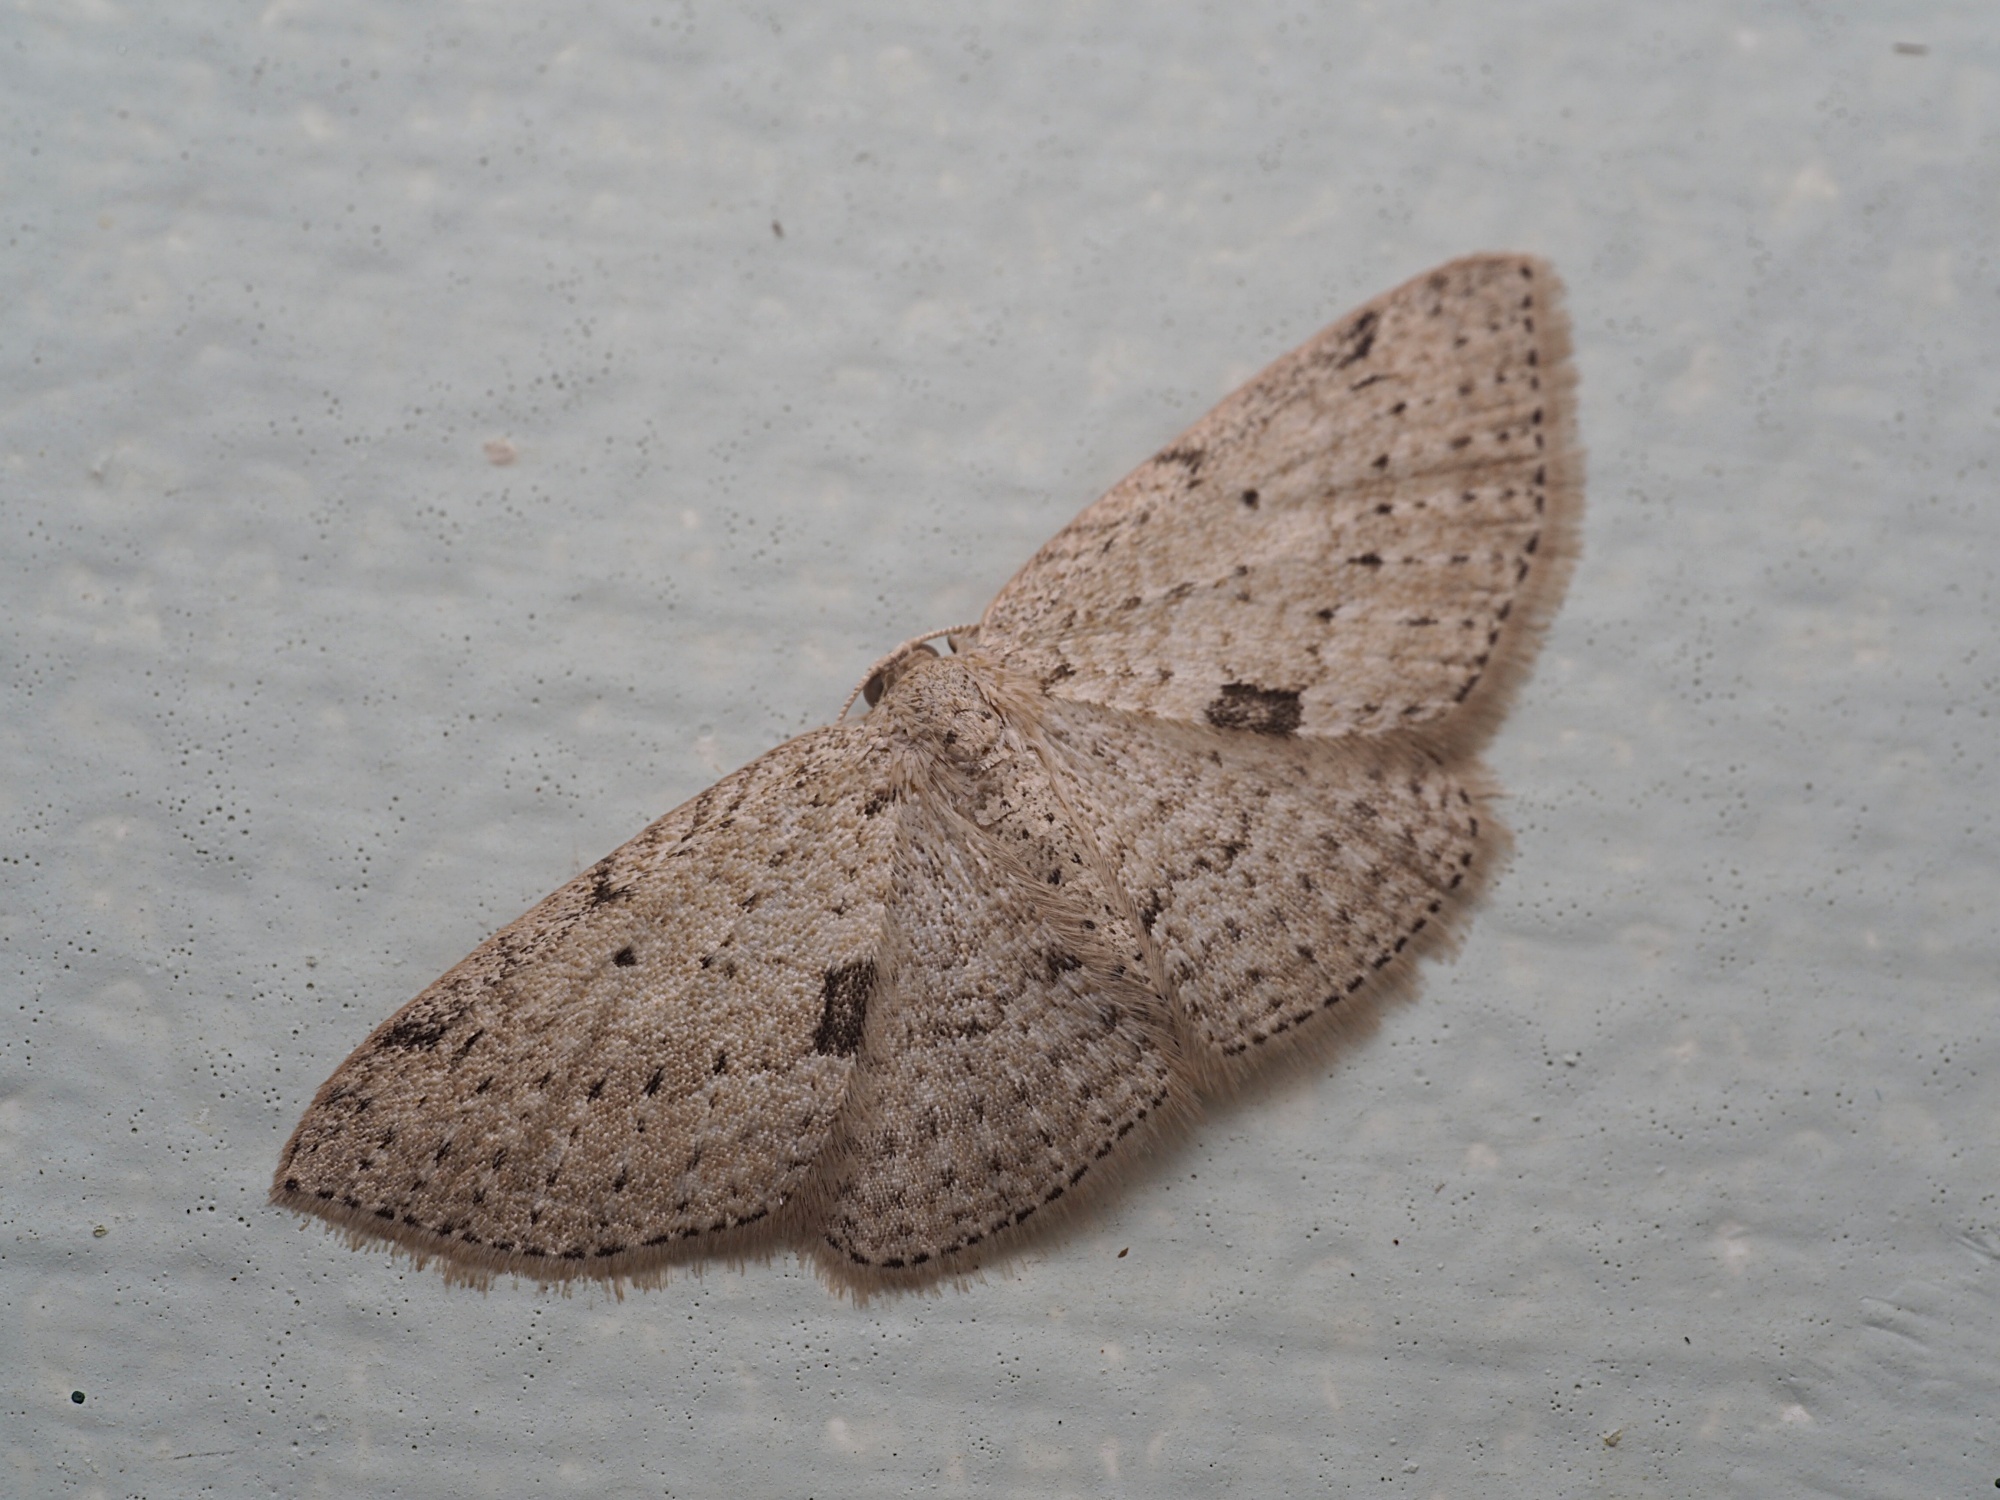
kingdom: Animalia
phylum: Arthropoda
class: Insecta
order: Lepidoptera
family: Geometridae
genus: Poecilasthena
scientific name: Poecilasthena schistaria
